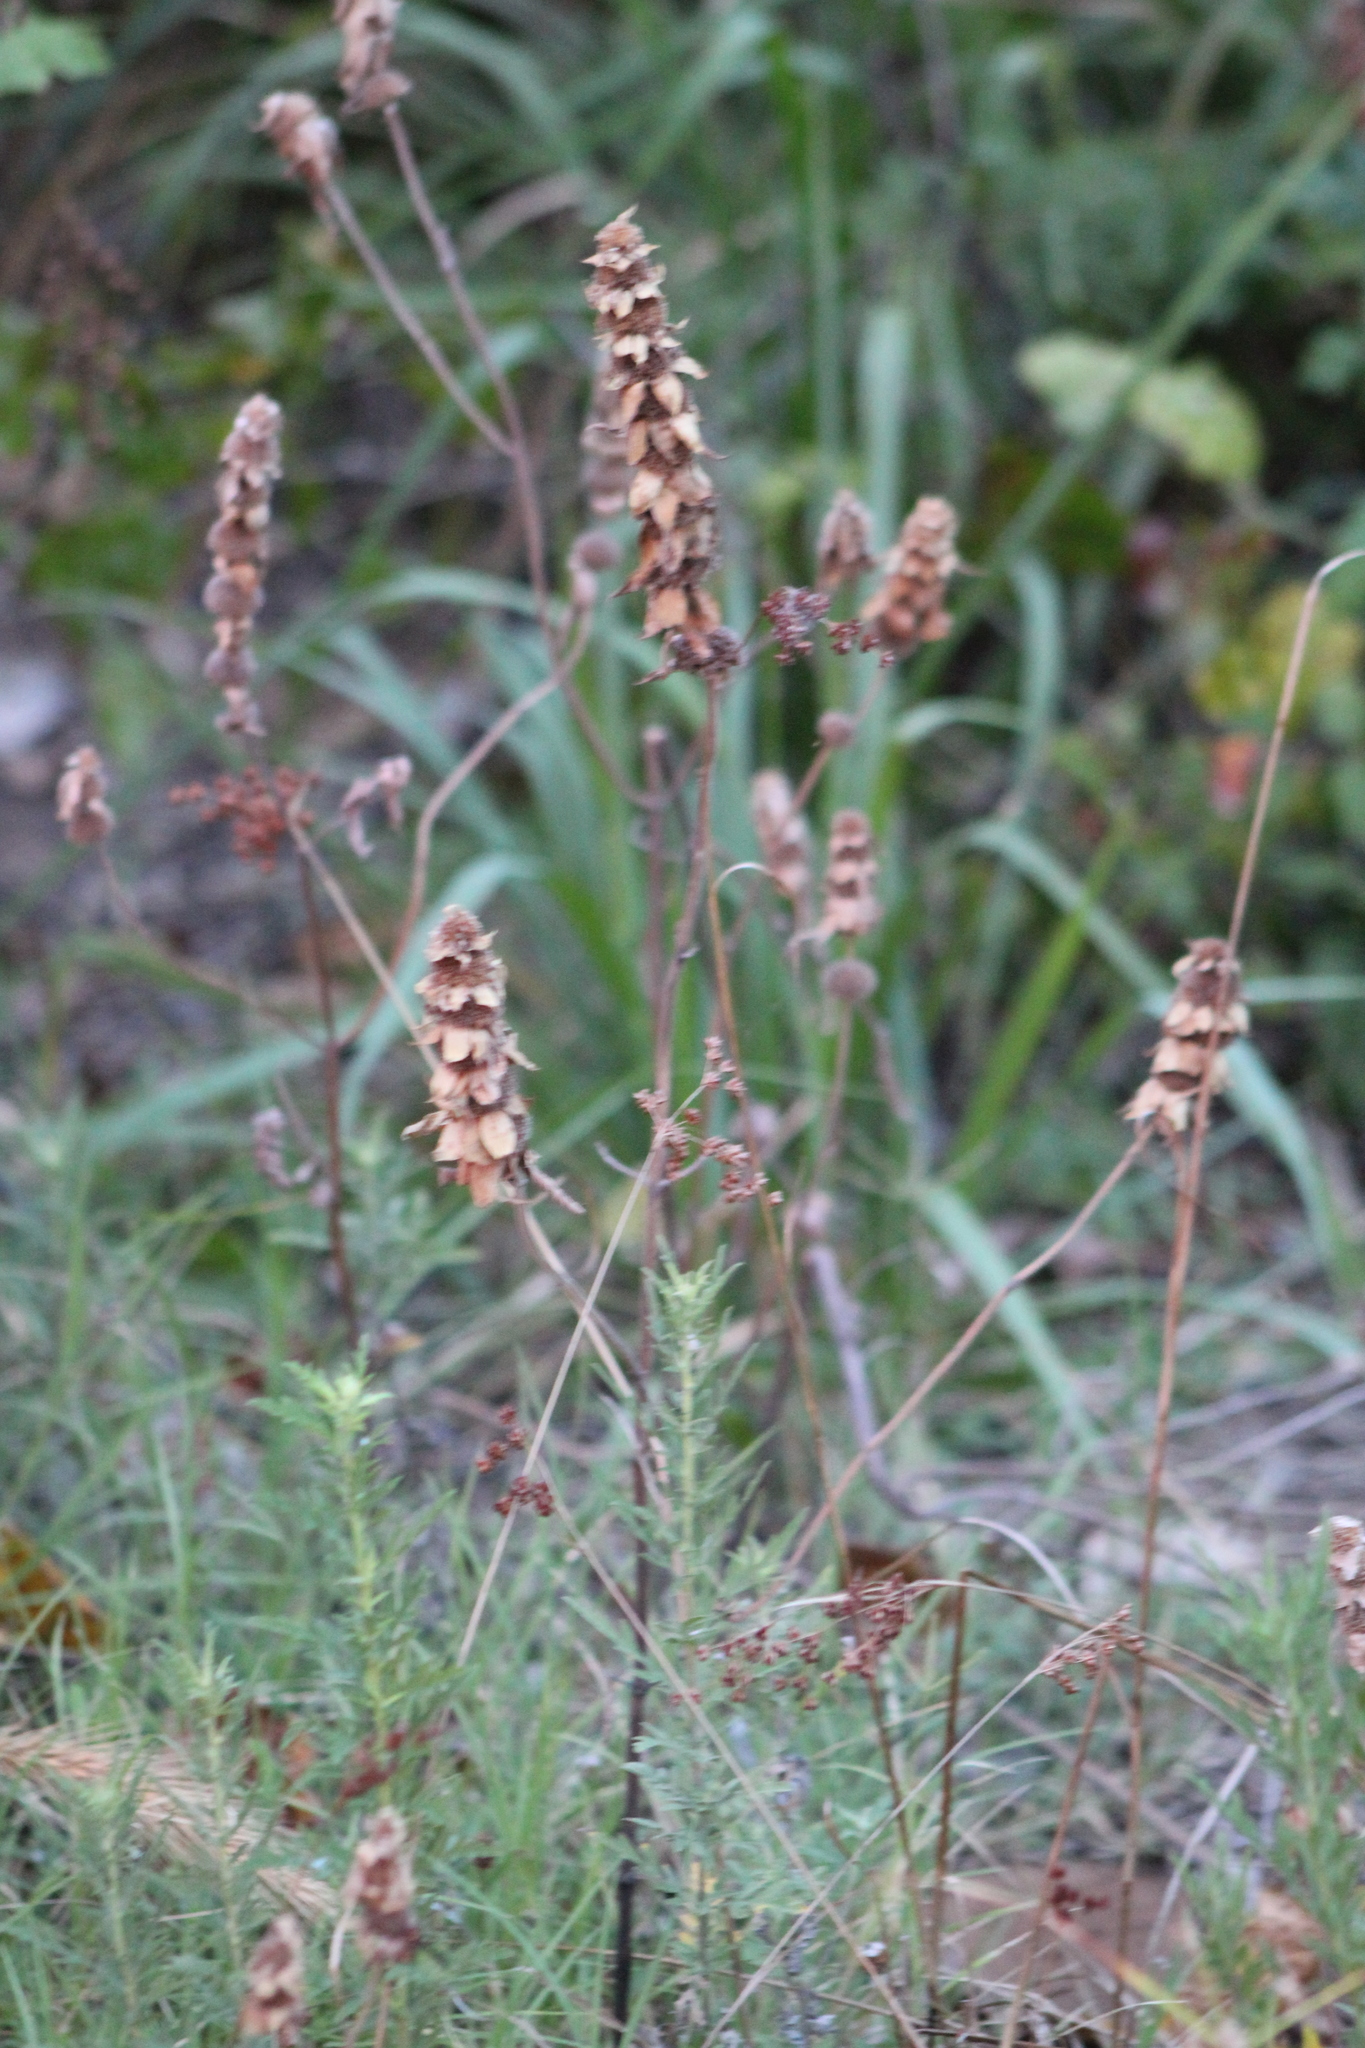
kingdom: Plantae
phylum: Tracheophyta
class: Magnoliopsida
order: Lamiales
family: Lamiaceae
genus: Monarda
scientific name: Monarda punctata
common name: Dotted monarda
